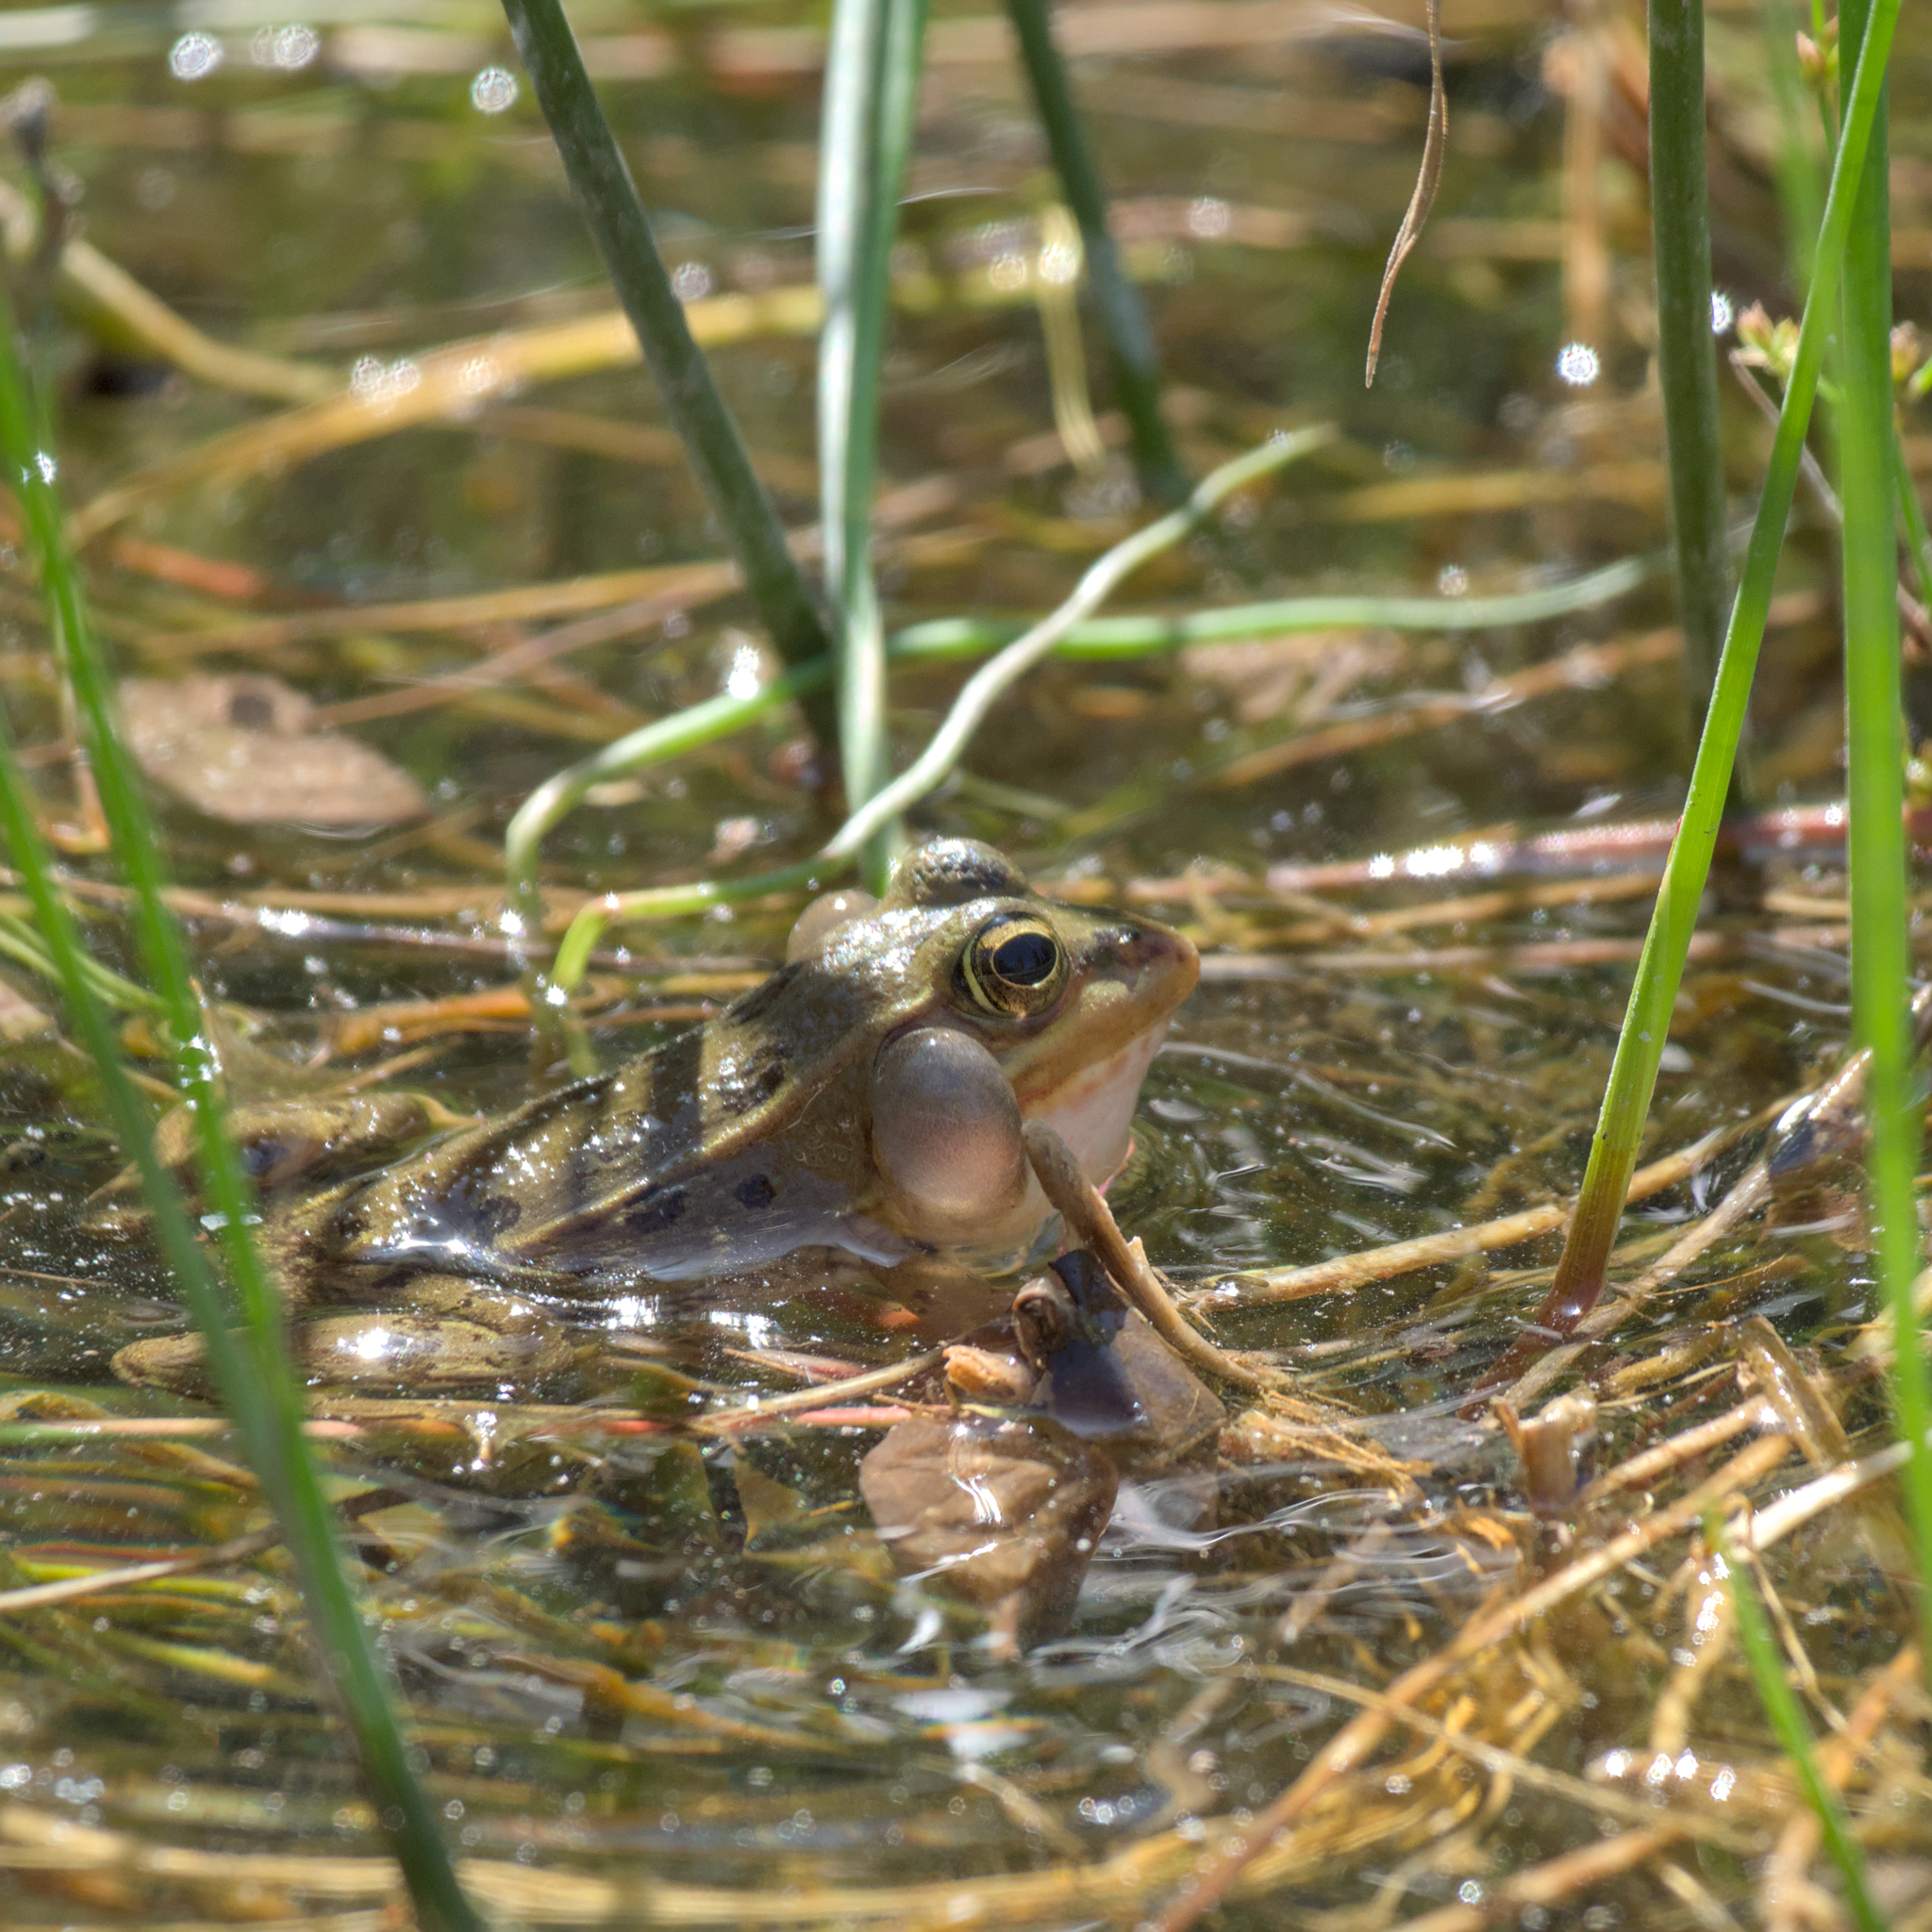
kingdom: Animalia
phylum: Chordata
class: Amphibia
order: Anura
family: Ranidae
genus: Pelophylax
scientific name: Pelophylax perezi
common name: Perez's frog
